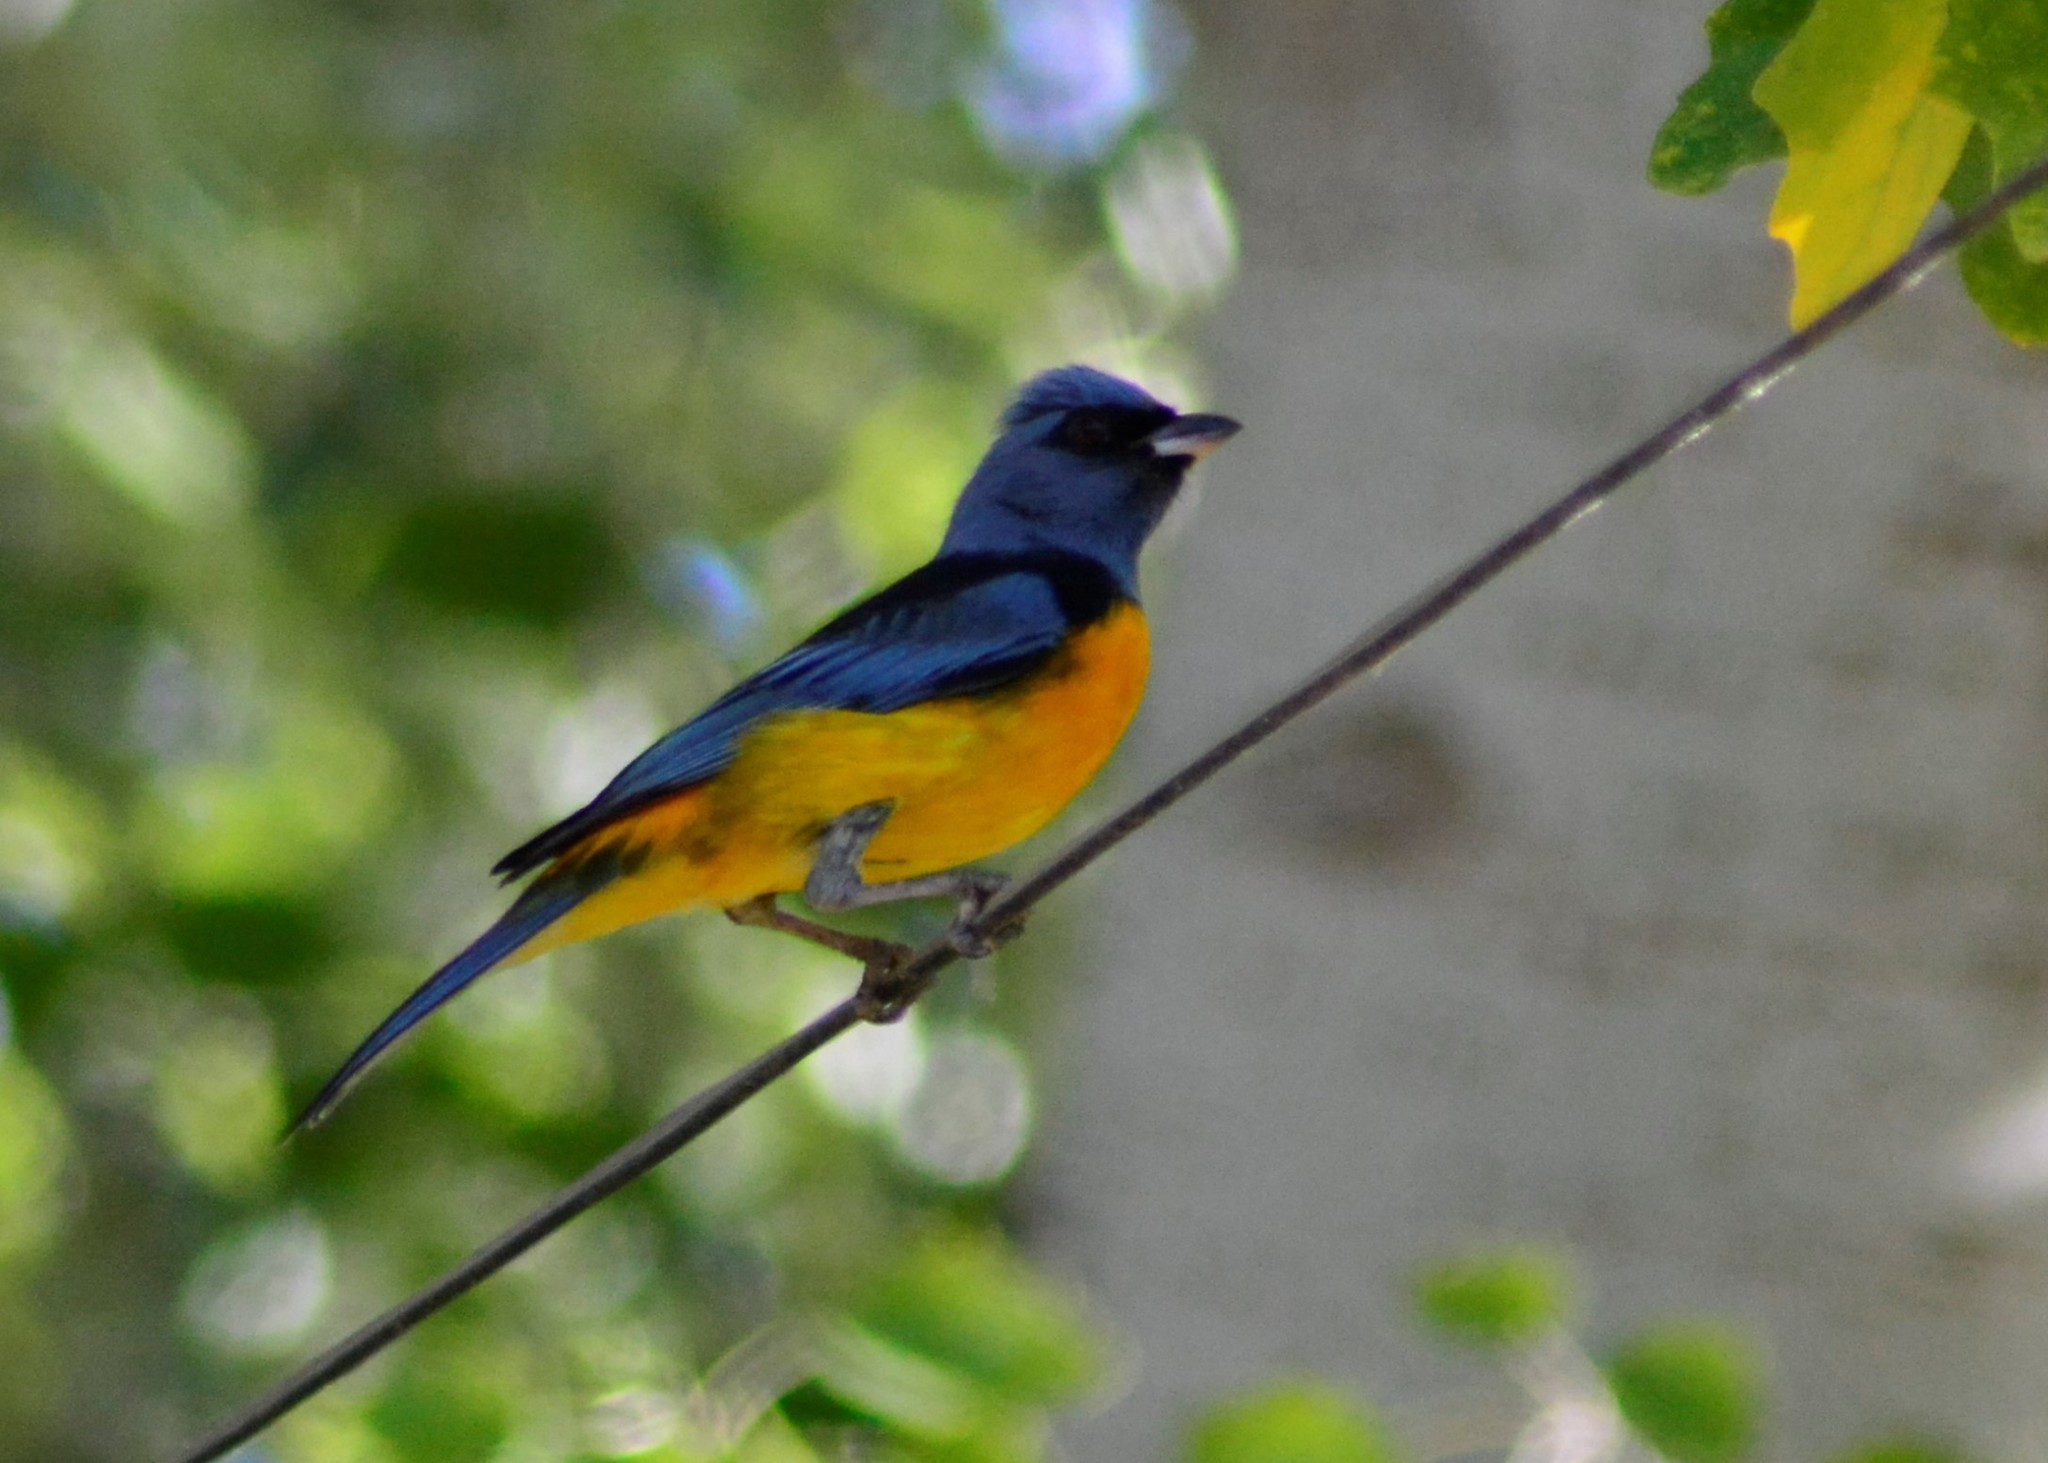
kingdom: Animalia
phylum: Chordata
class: Aves
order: Passeriformes
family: Thraupidae
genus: Rauenia
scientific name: Rauenia bonariensis
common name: Blue-and-yellow tanager
